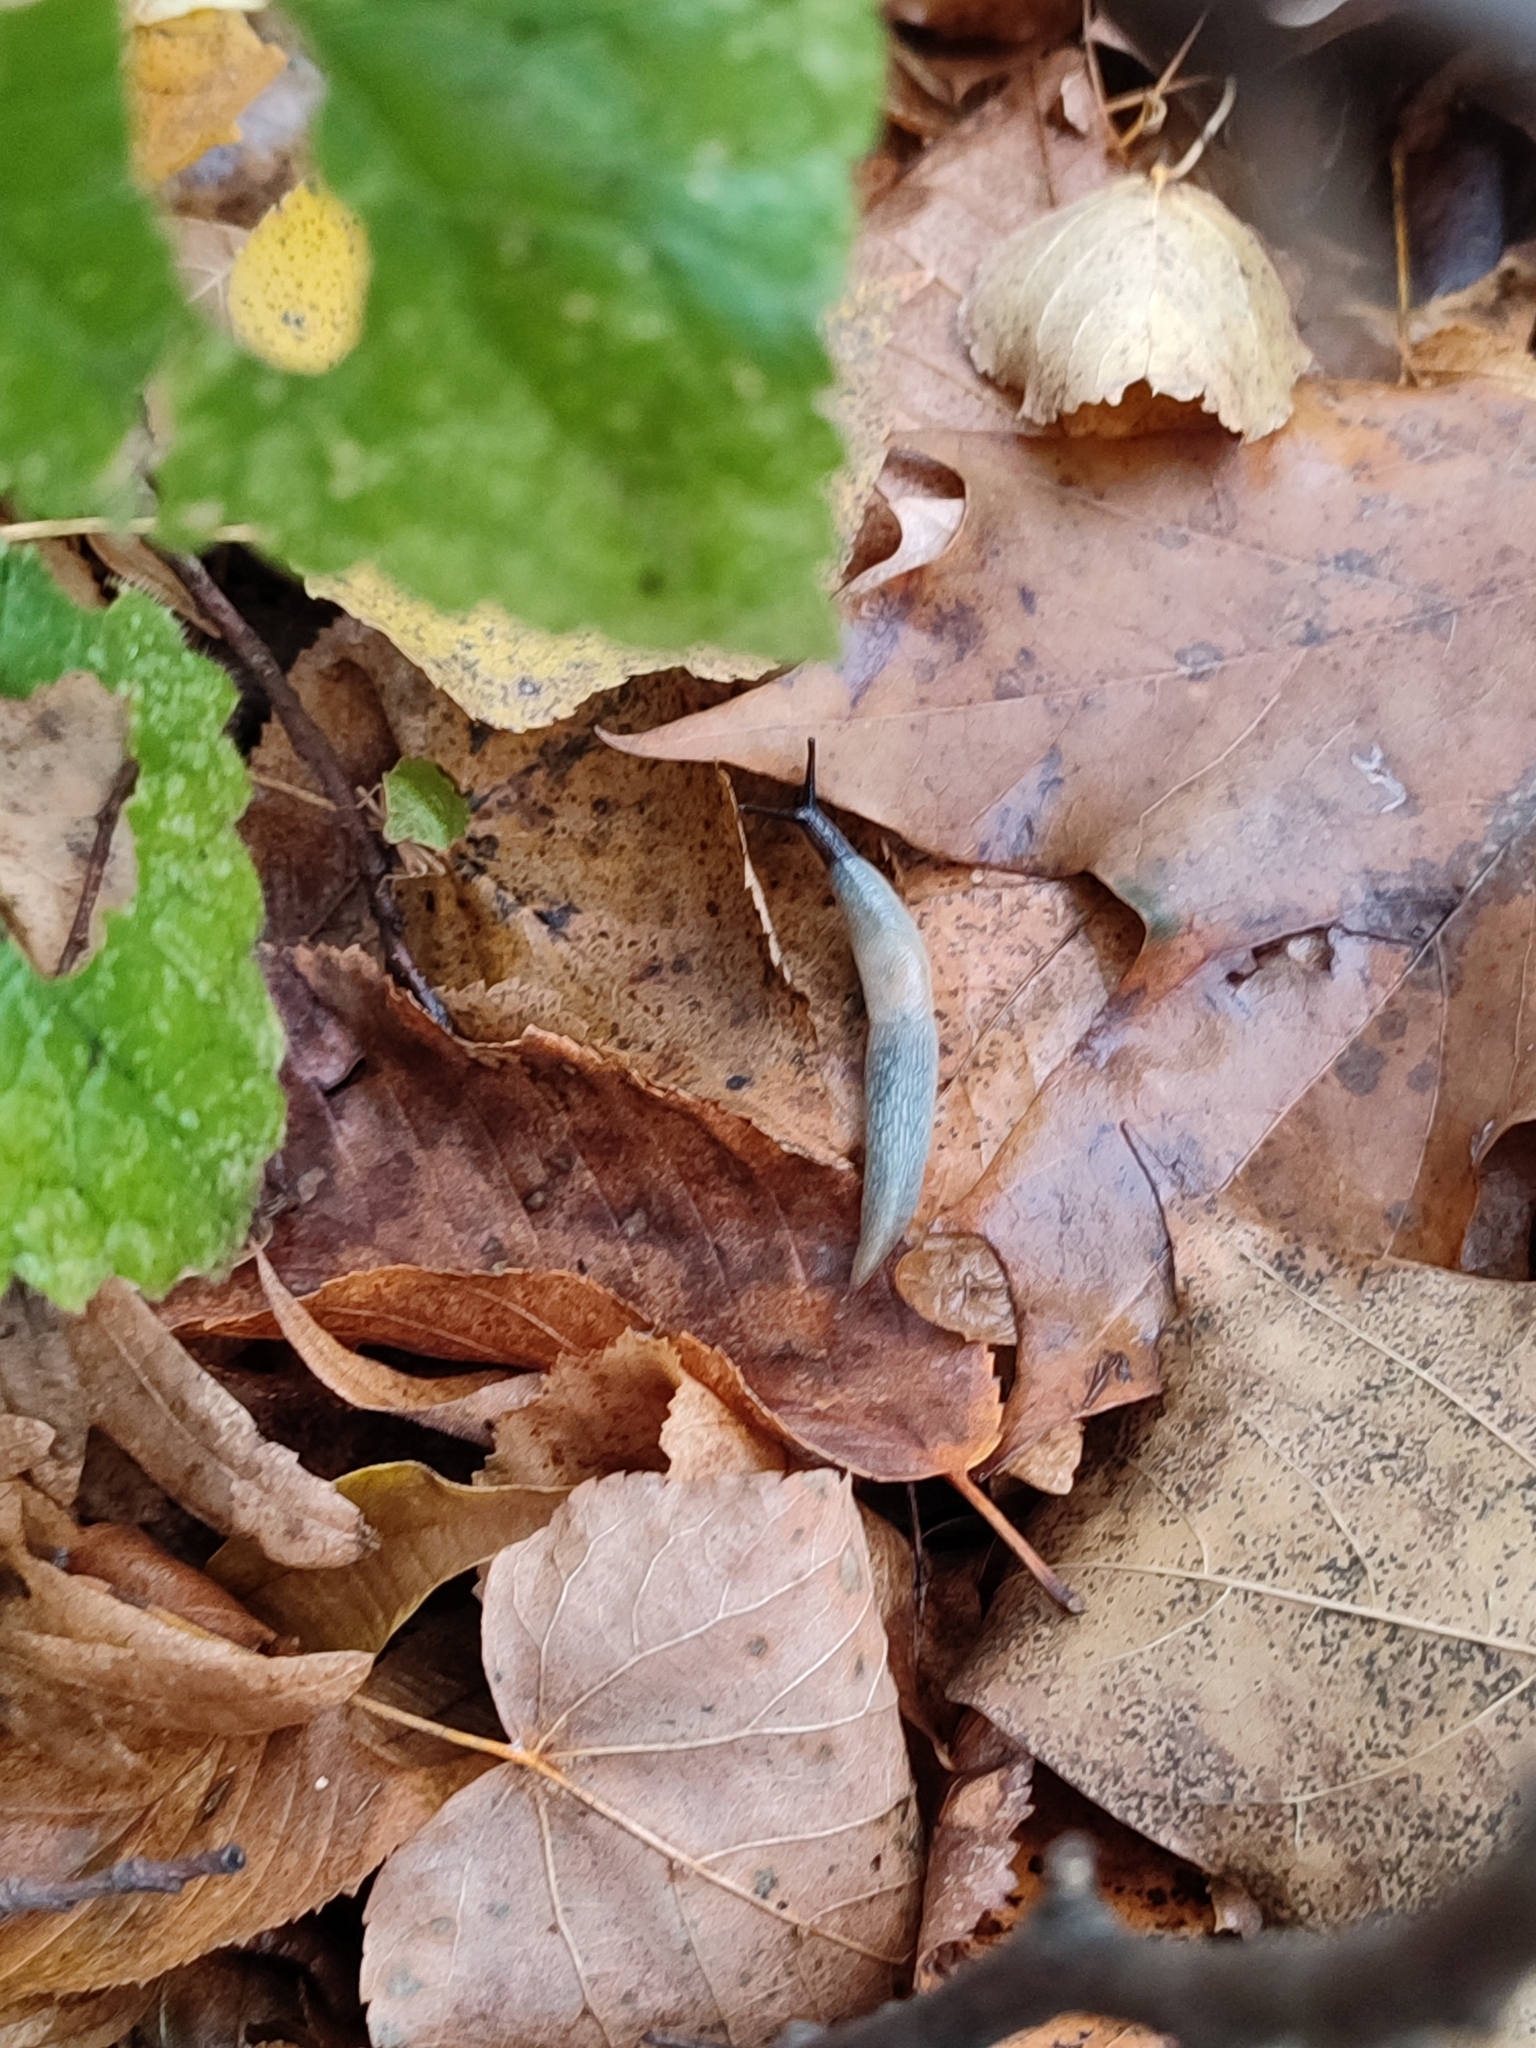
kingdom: Animalia
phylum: Mollusca
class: Gastropoda
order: Stylommatophora
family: Agriolimacidae
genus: Krynickillus
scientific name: Krynickillus melanocephalus
